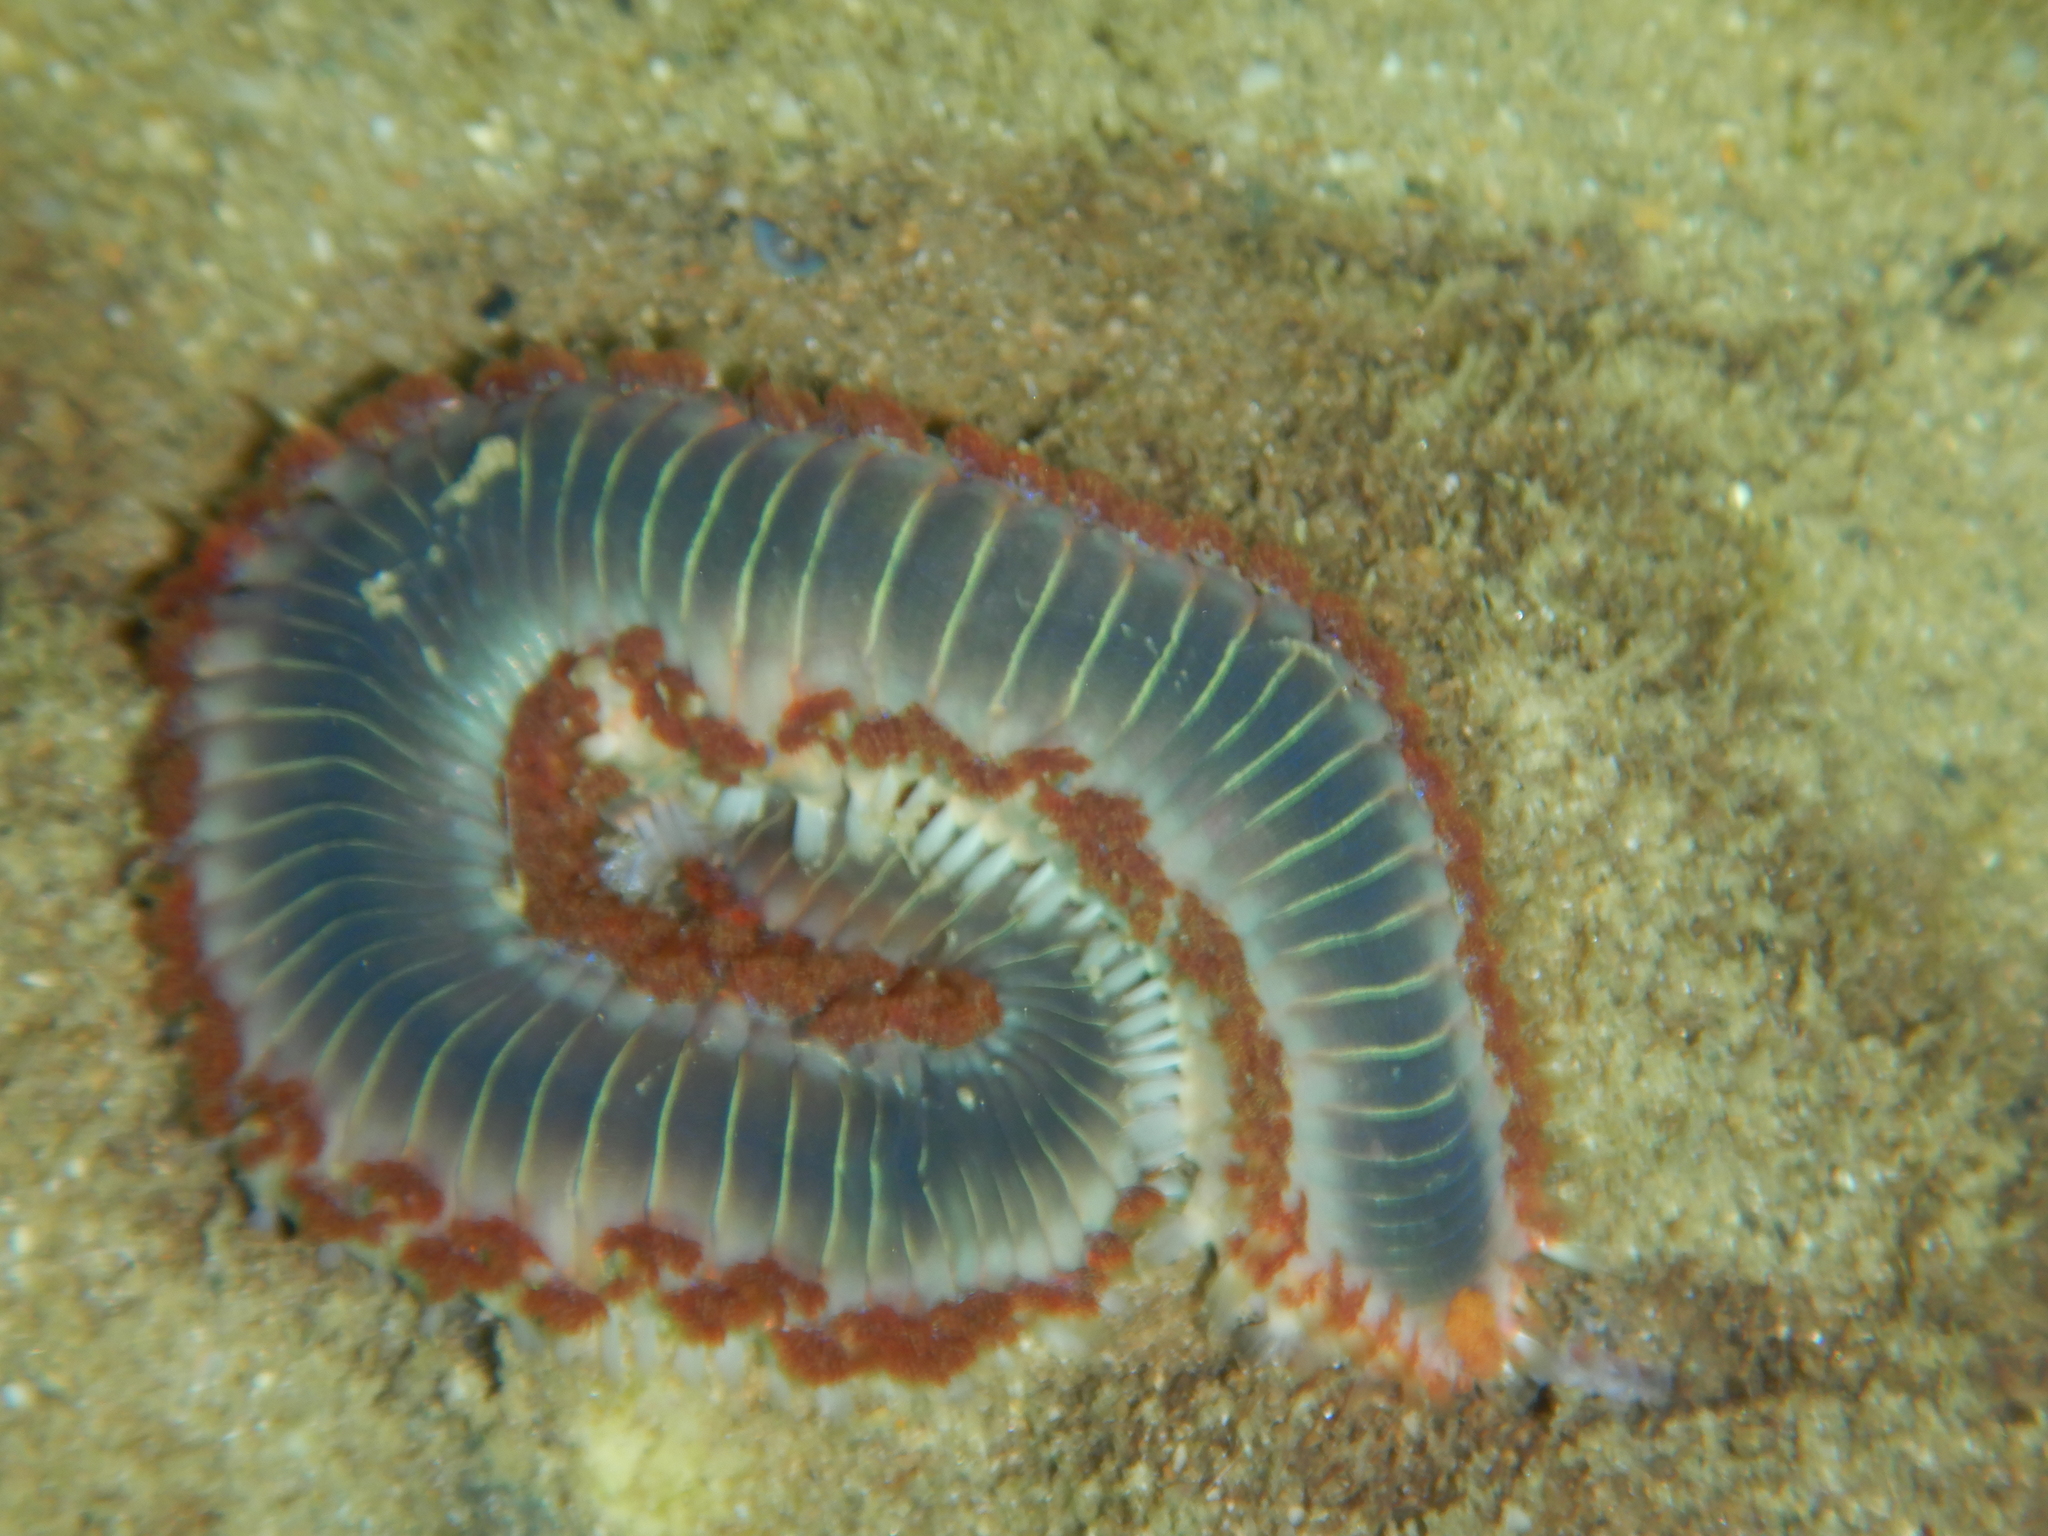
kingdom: Animalia
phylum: Annelida
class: Polychaeta
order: Amphinomida
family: Amphinomidae
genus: Hermodice
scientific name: Hermodice carunculata
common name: Bearded fireworm
